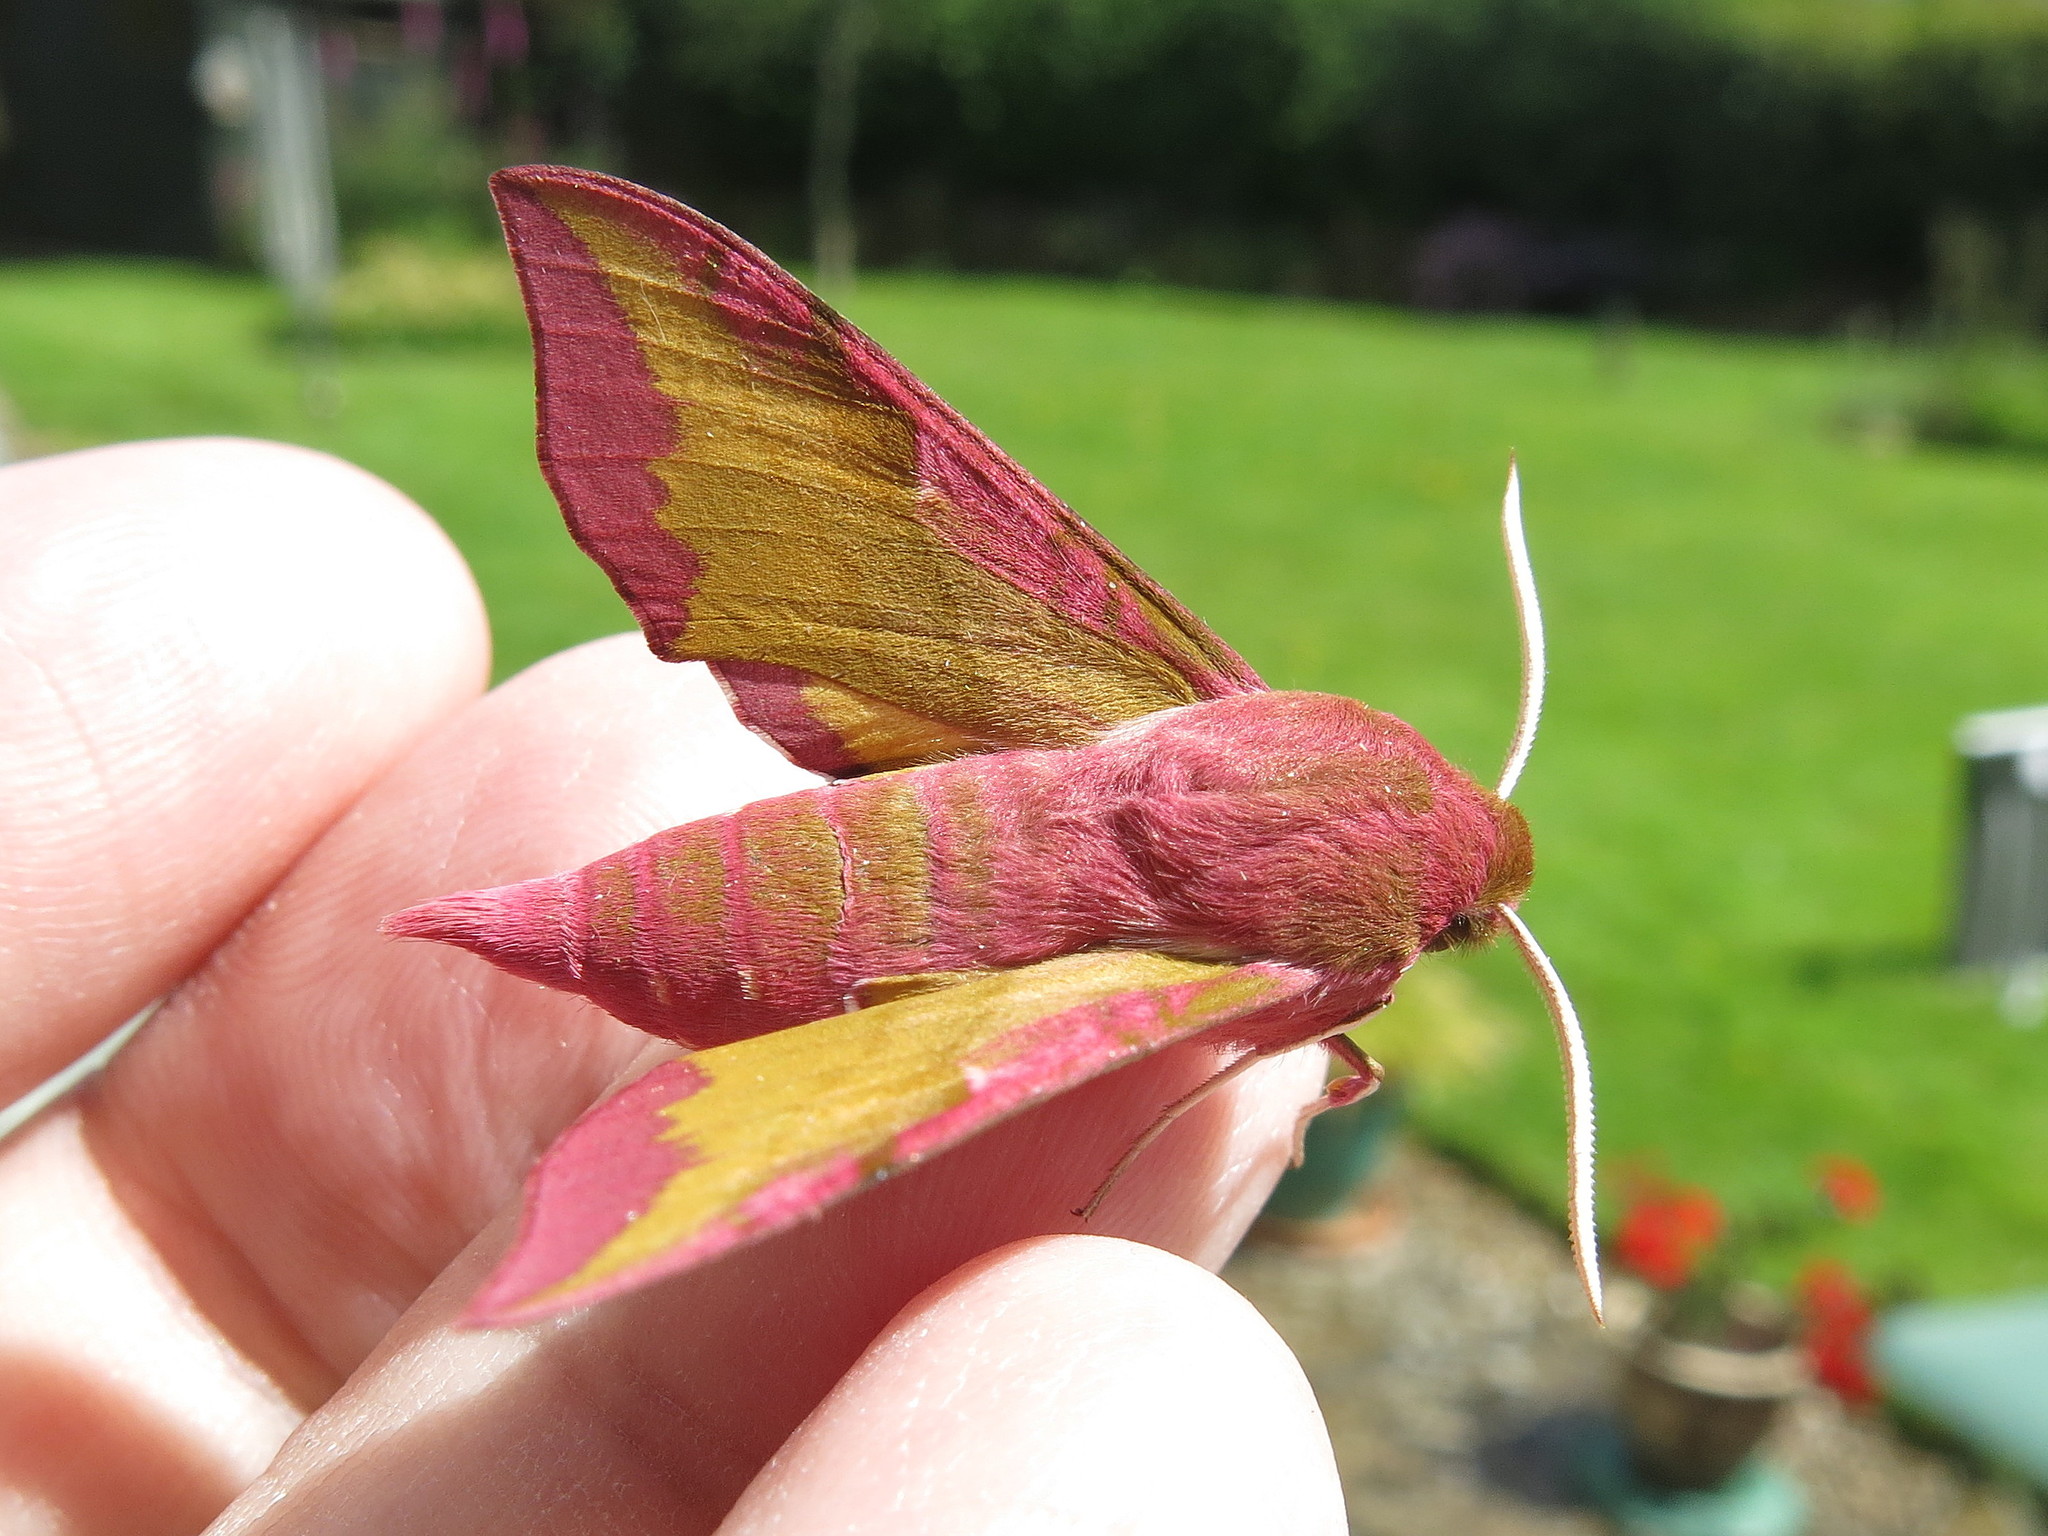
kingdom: Animalia
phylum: Arthropoda
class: Insecta
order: Lepidoptera
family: Sphingidae
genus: Deilephila
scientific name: Deilephila porcellus
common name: Small elephant hawk-moth
